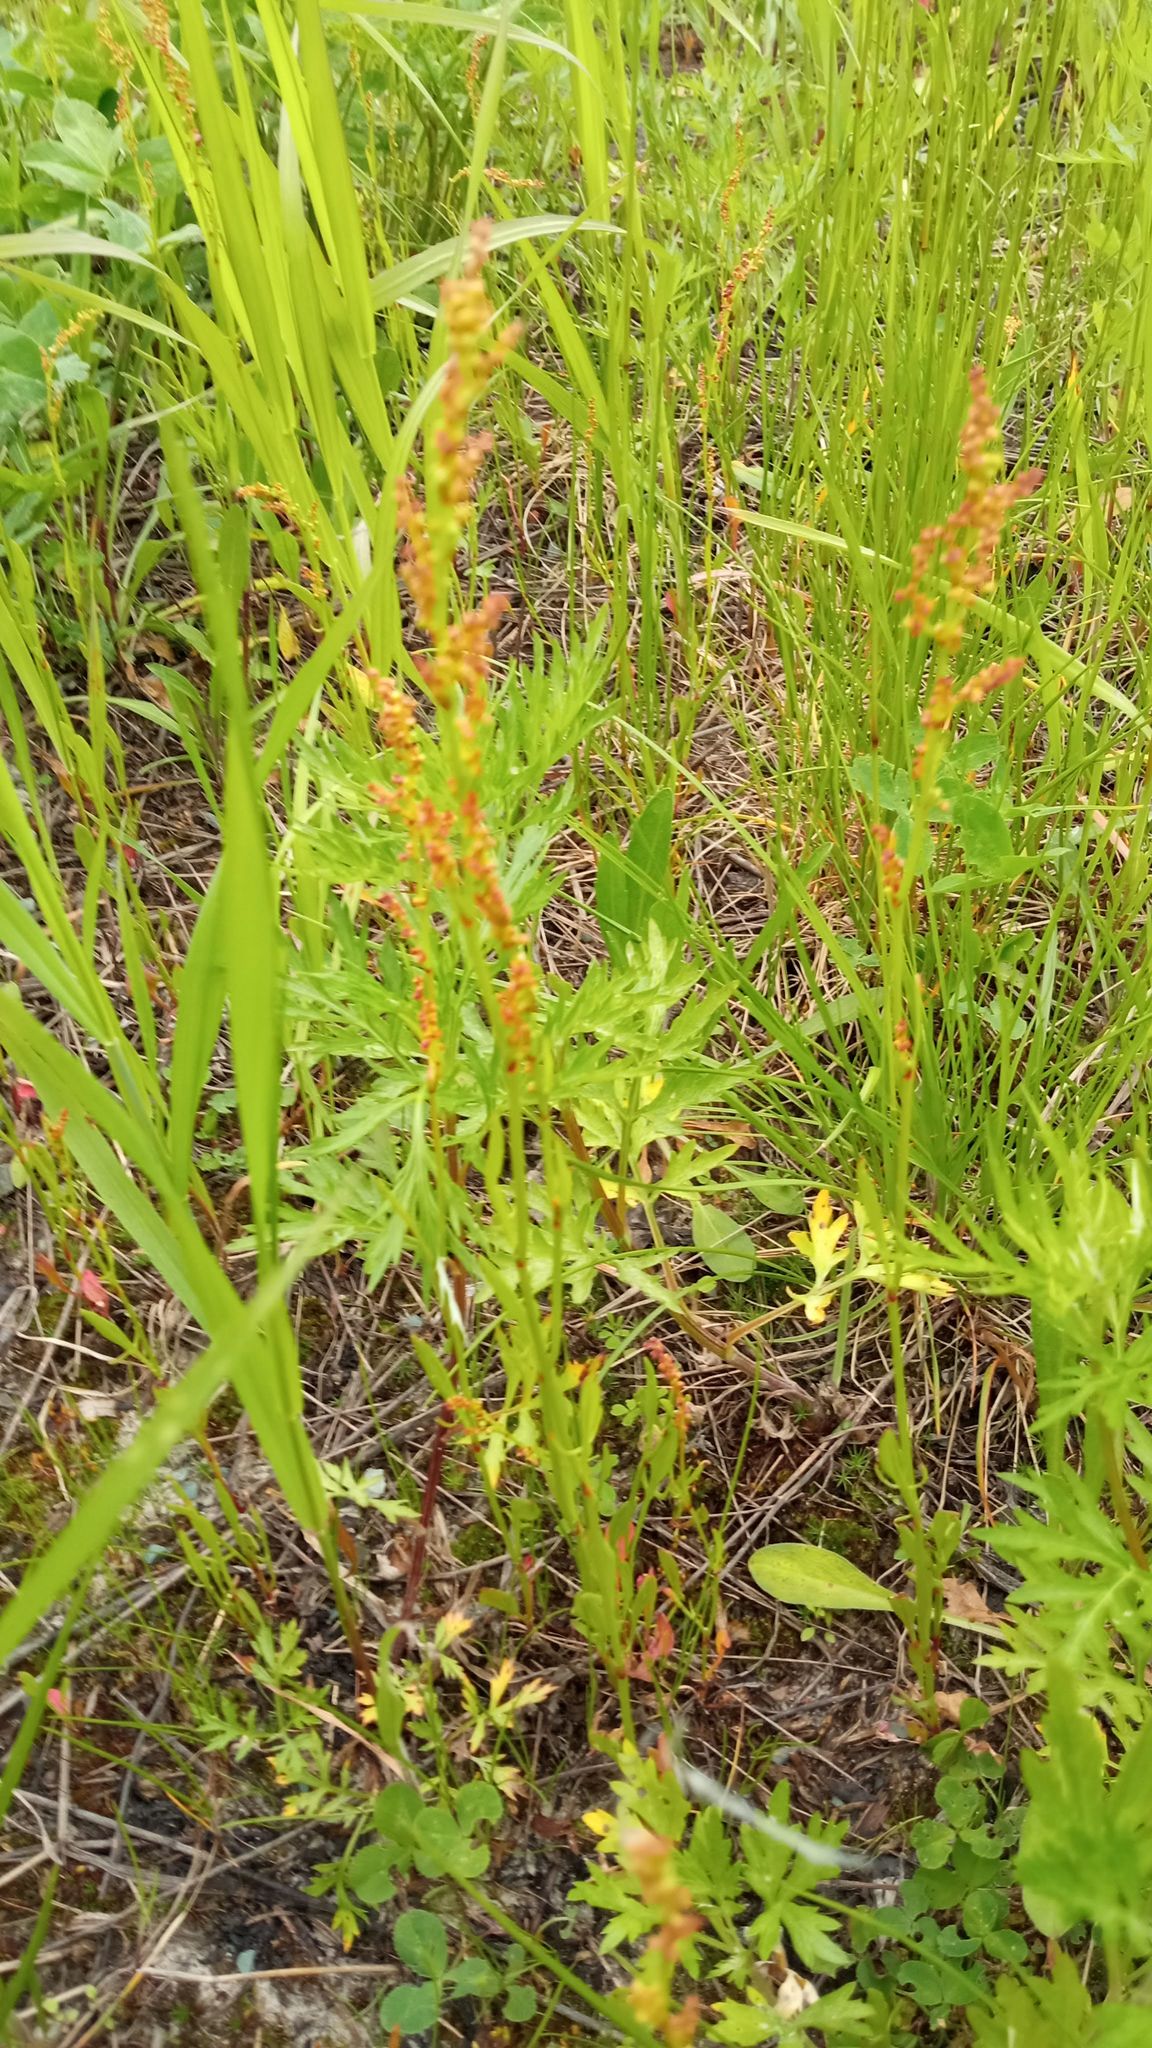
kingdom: Plantae
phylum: Tracheophyta
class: Magnoliopsida
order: Caryophyllales
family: Polygonaceae
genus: Rumex
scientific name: Rumex acetosella
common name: Common sheep sorrel
